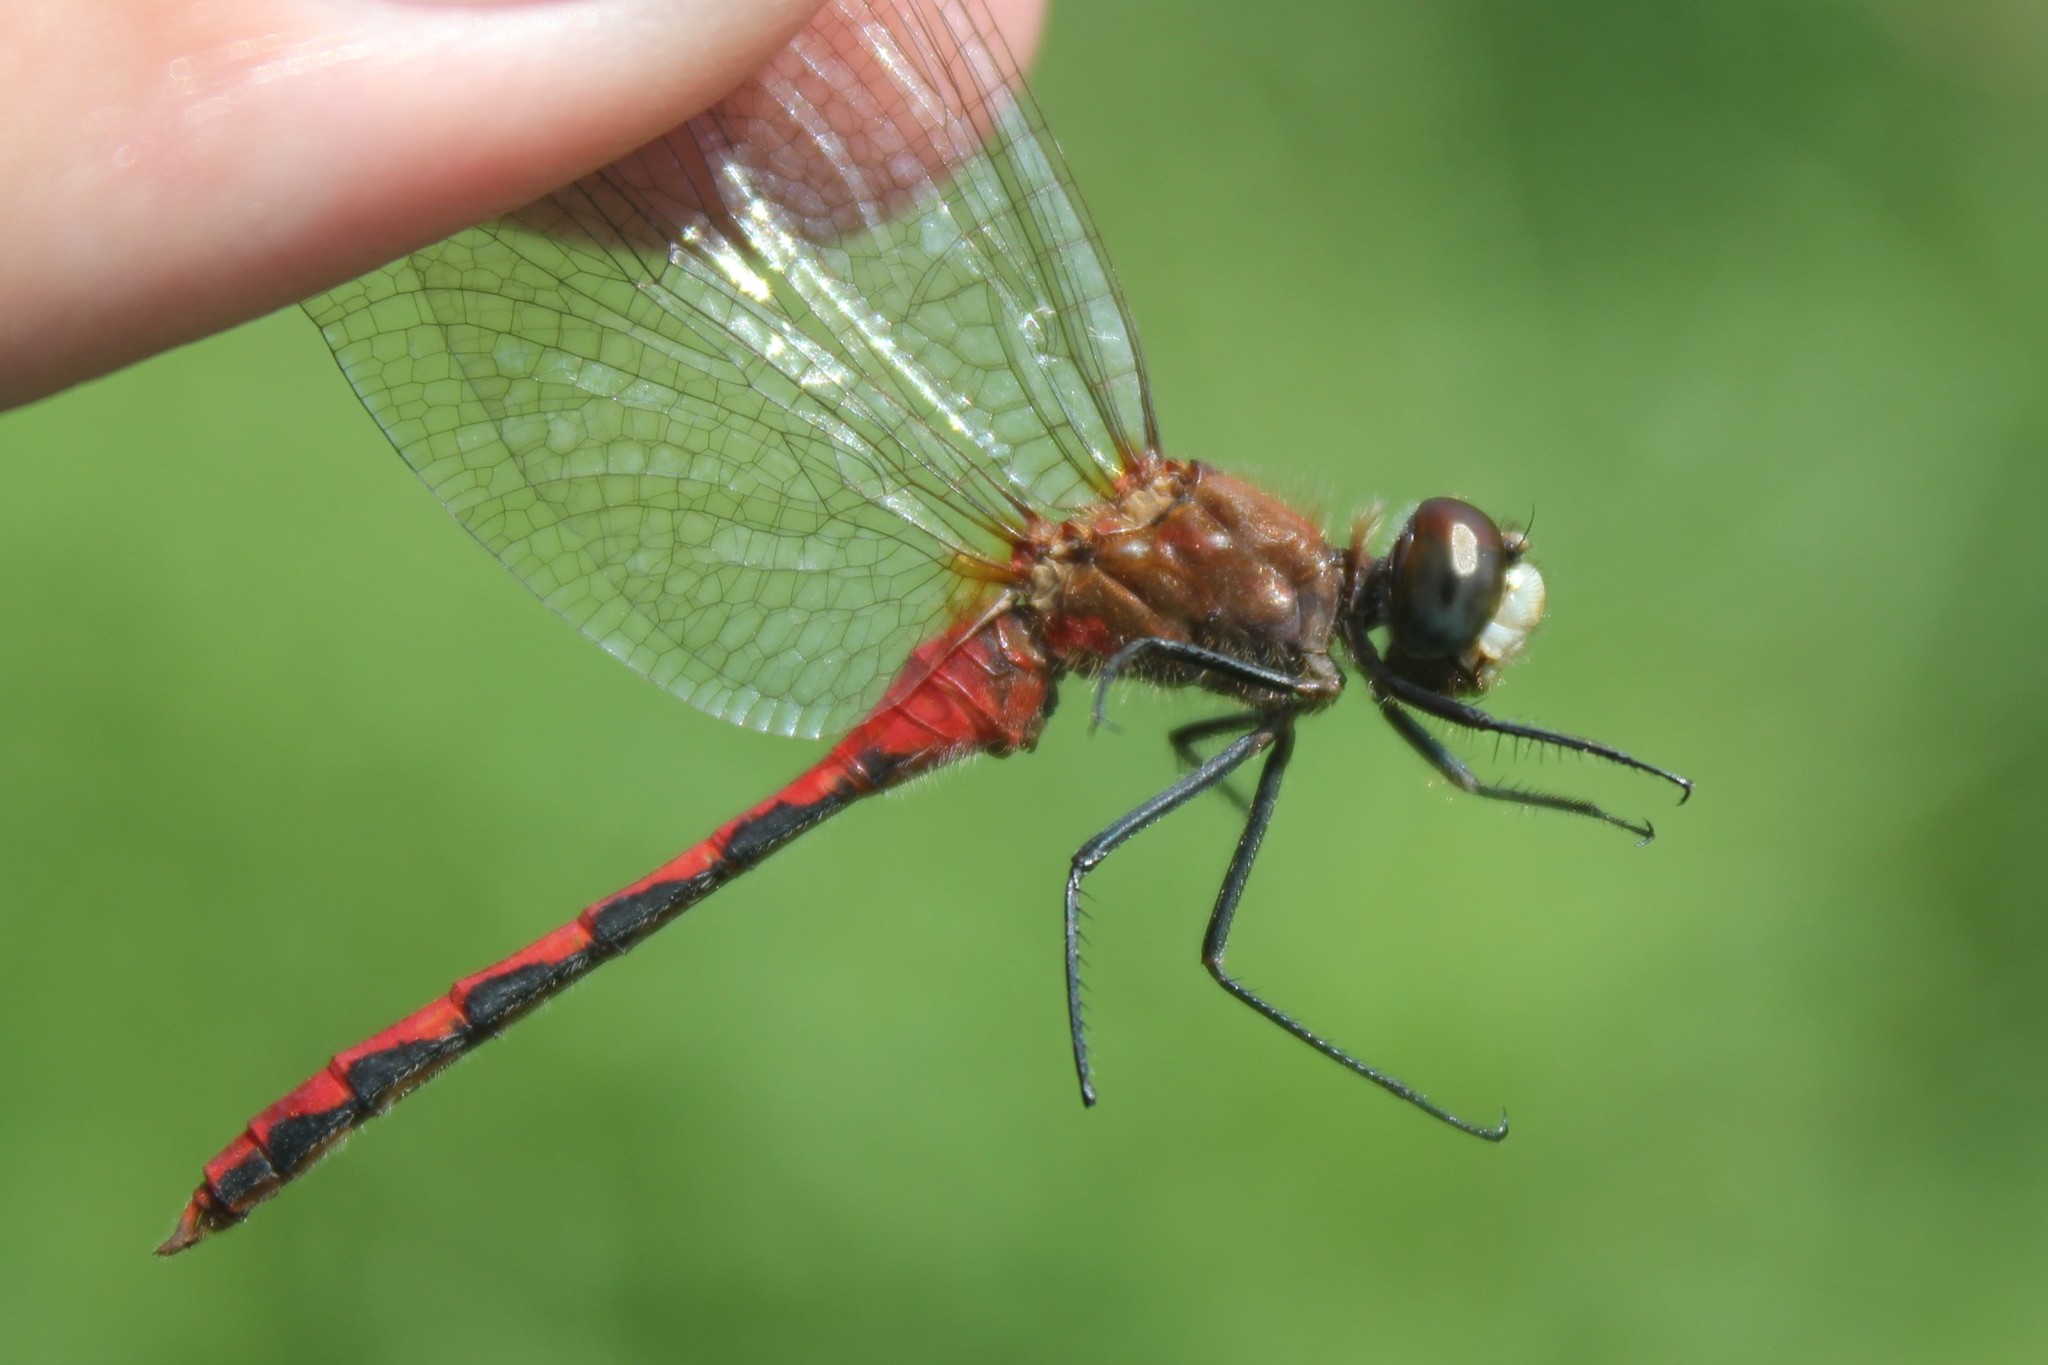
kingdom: Animalia
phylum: Arthropoda
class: Insecta
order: Odonata
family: Libellulidae
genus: Sympetrum
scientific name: Sympetrum obtrusum
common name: White-faced meadowhawk
